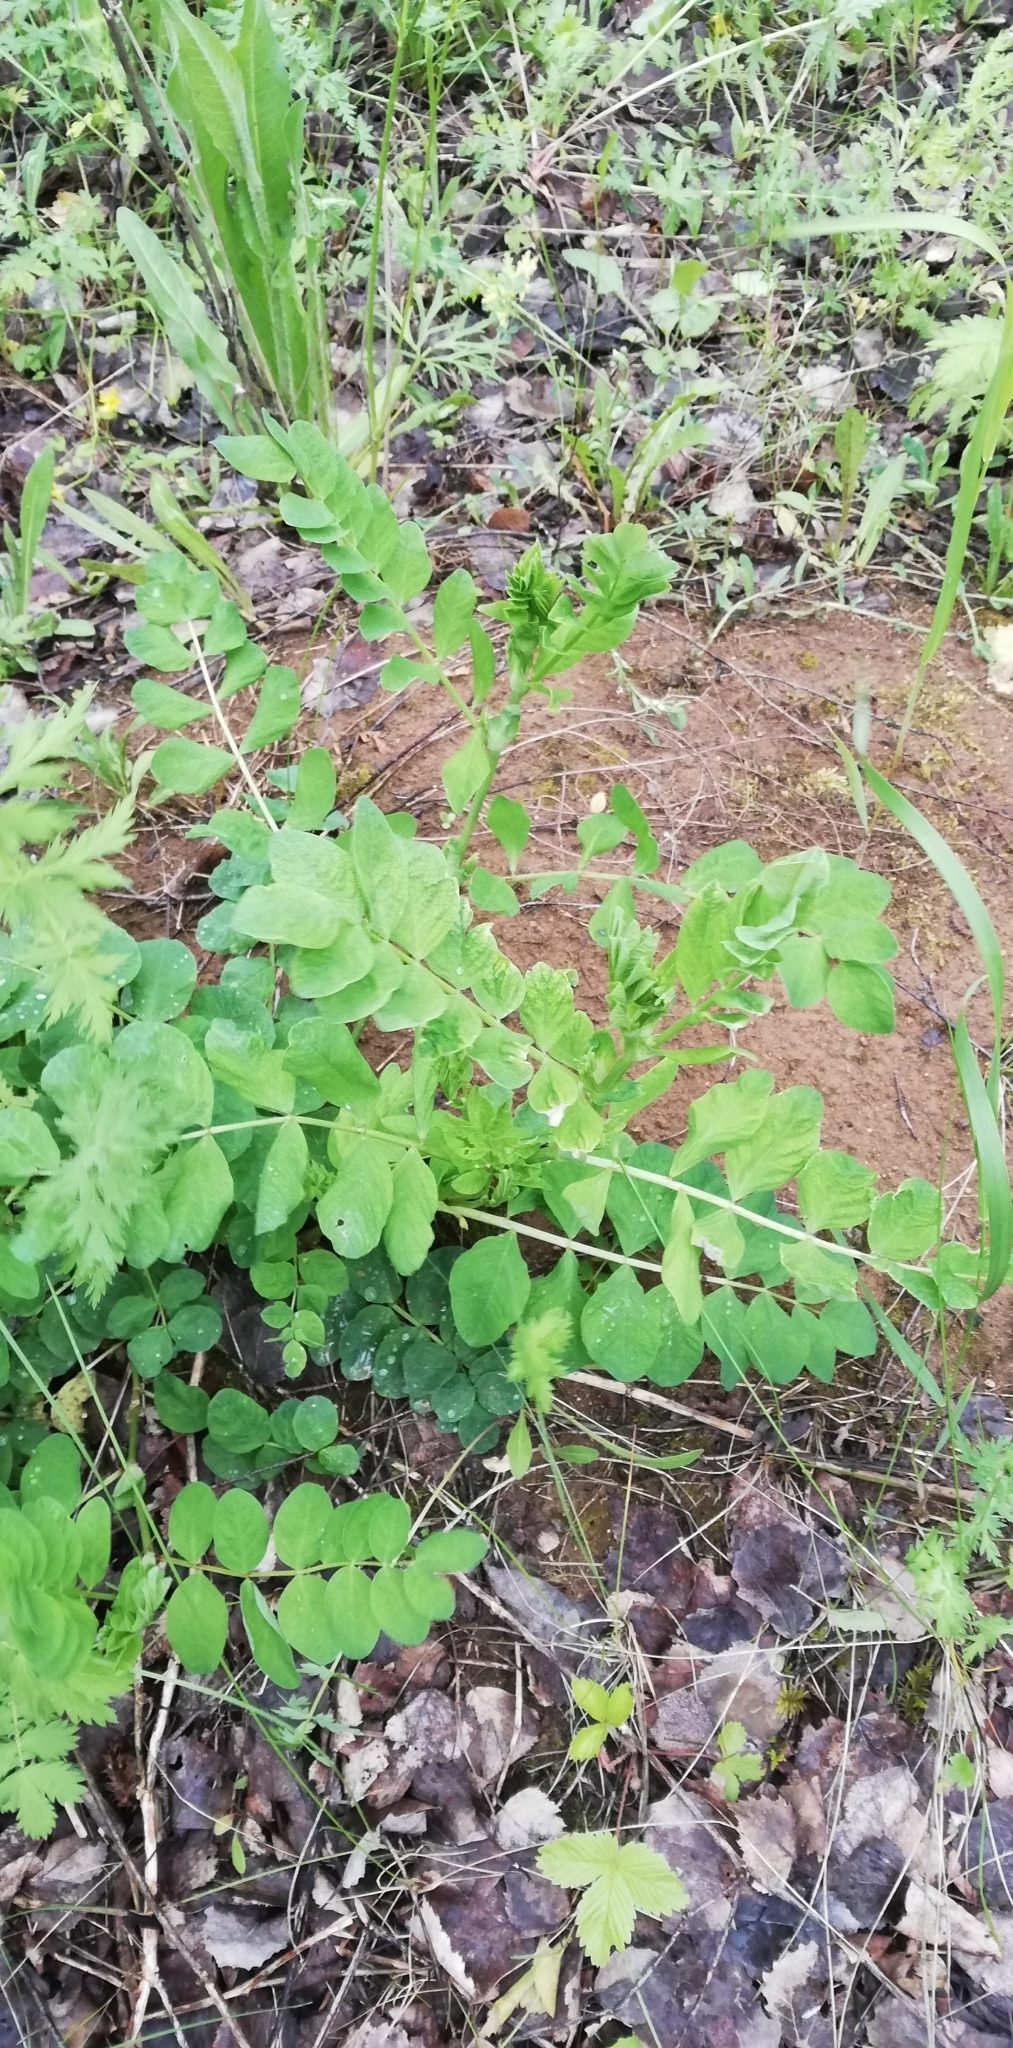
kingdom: Plantae
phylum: Tracheophyta
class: Magnoliopsida
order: Fabales
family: Fabaceae
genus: Astragalus
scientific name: Astragalus glycyphyllos
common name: Wild liquorice
